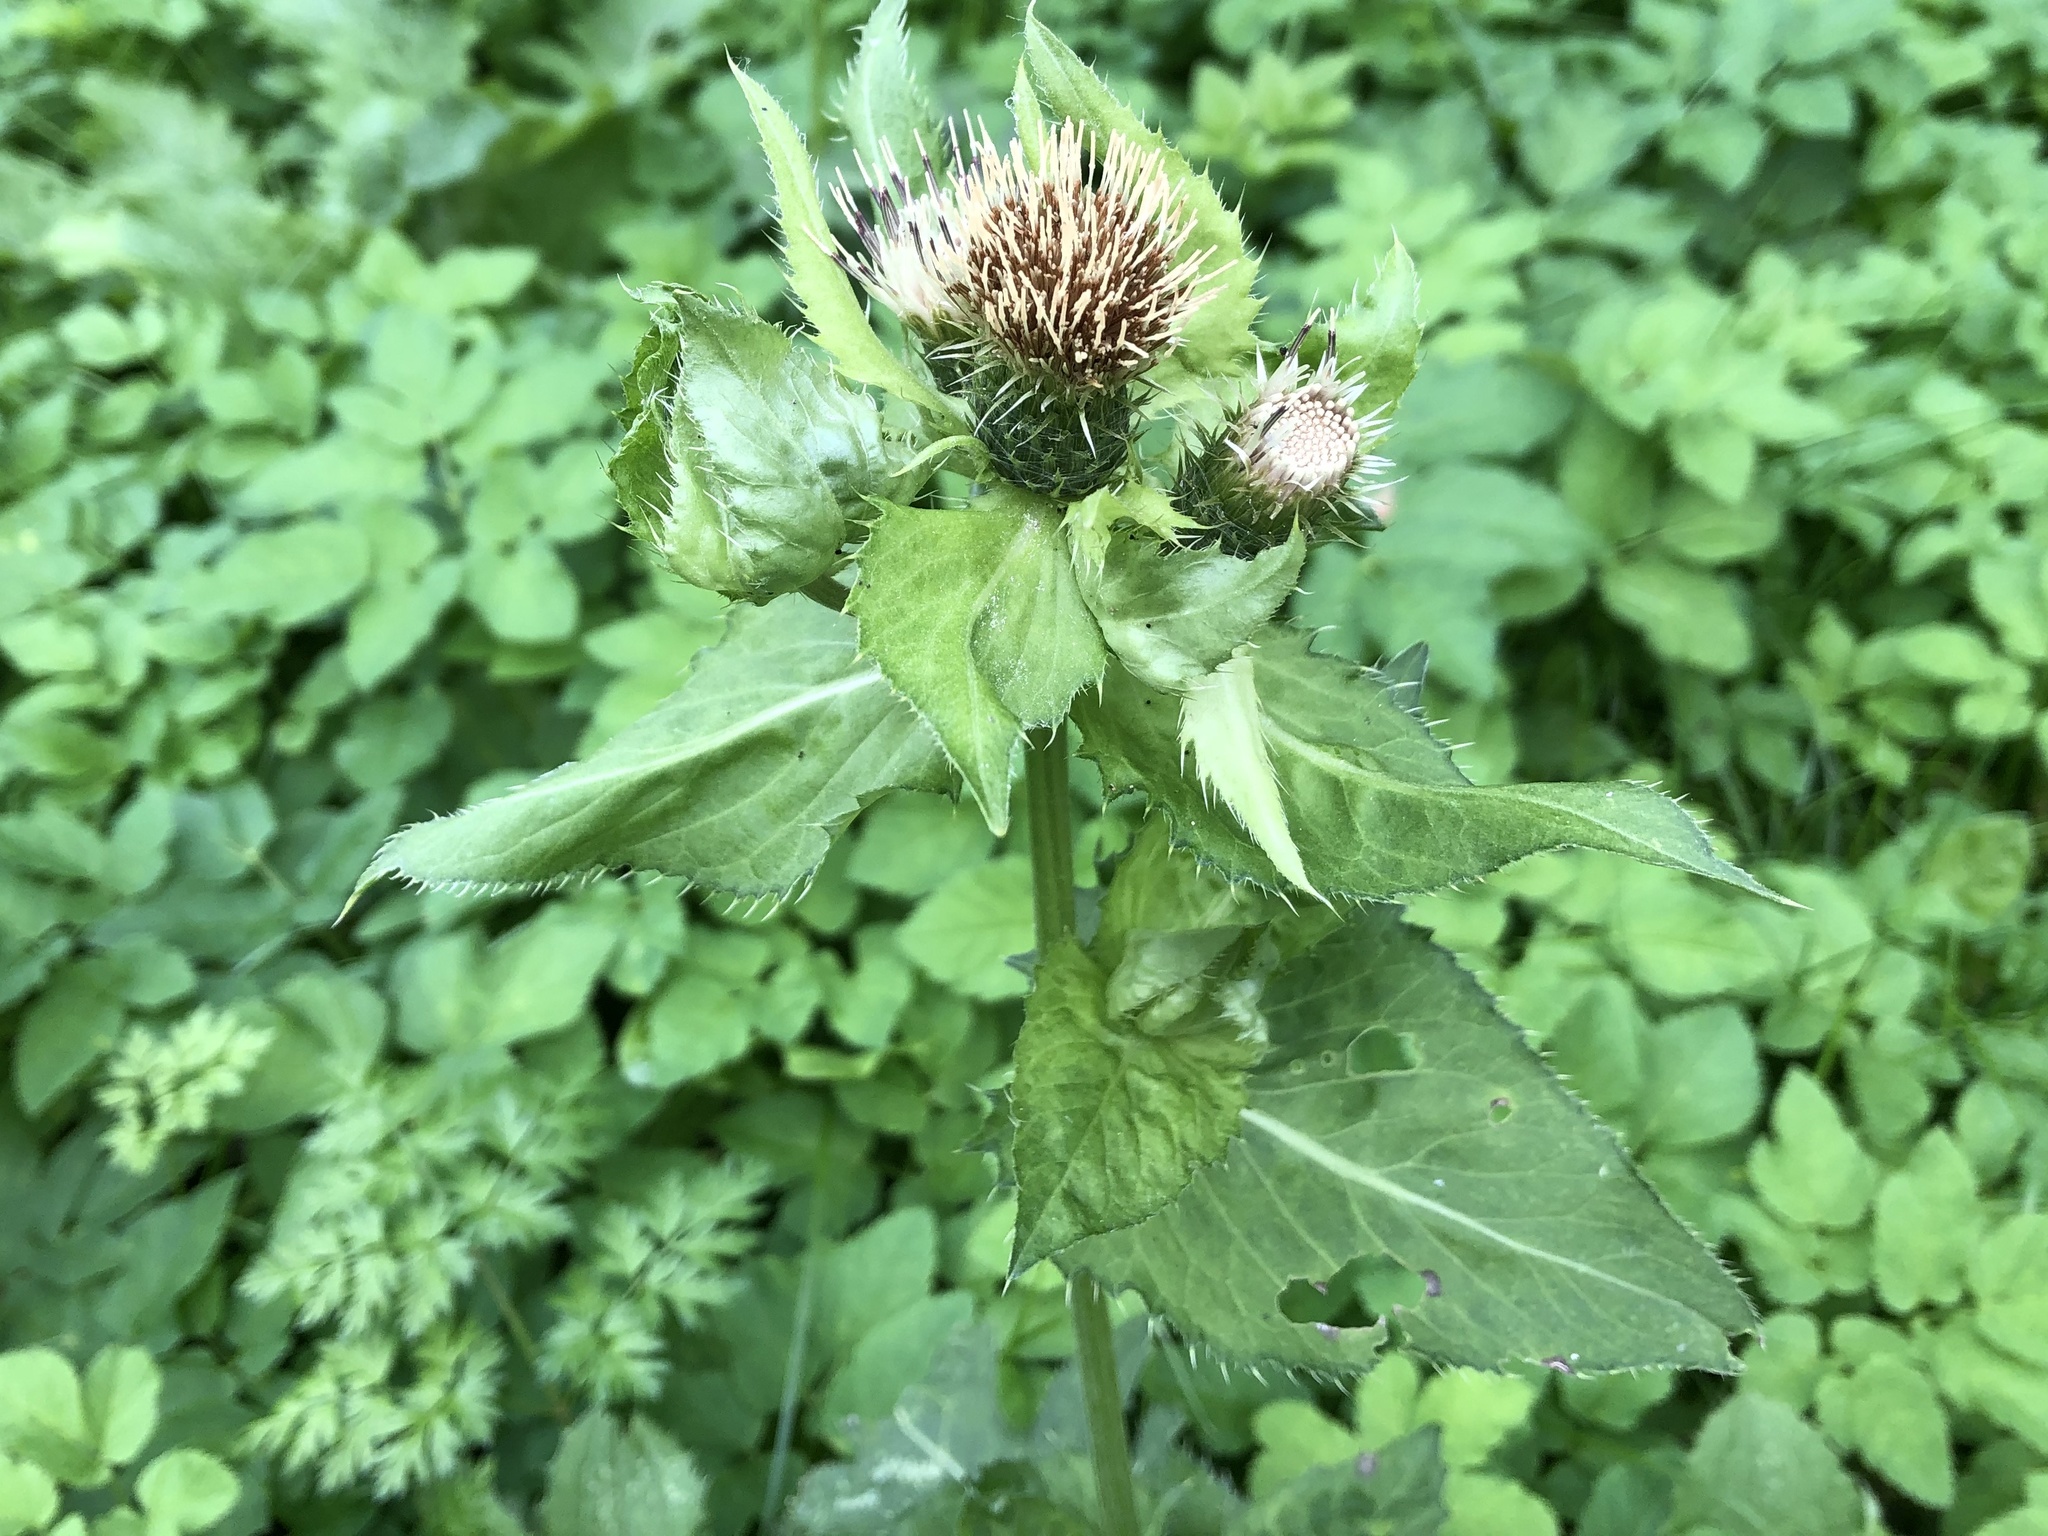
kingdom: Plantae
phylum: Tracheophyta
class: Magnoliopsida
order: Asterales
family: Asteraceae
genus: Cirsium
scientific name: Cirsium oleraceum
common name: Cabbage thistle
